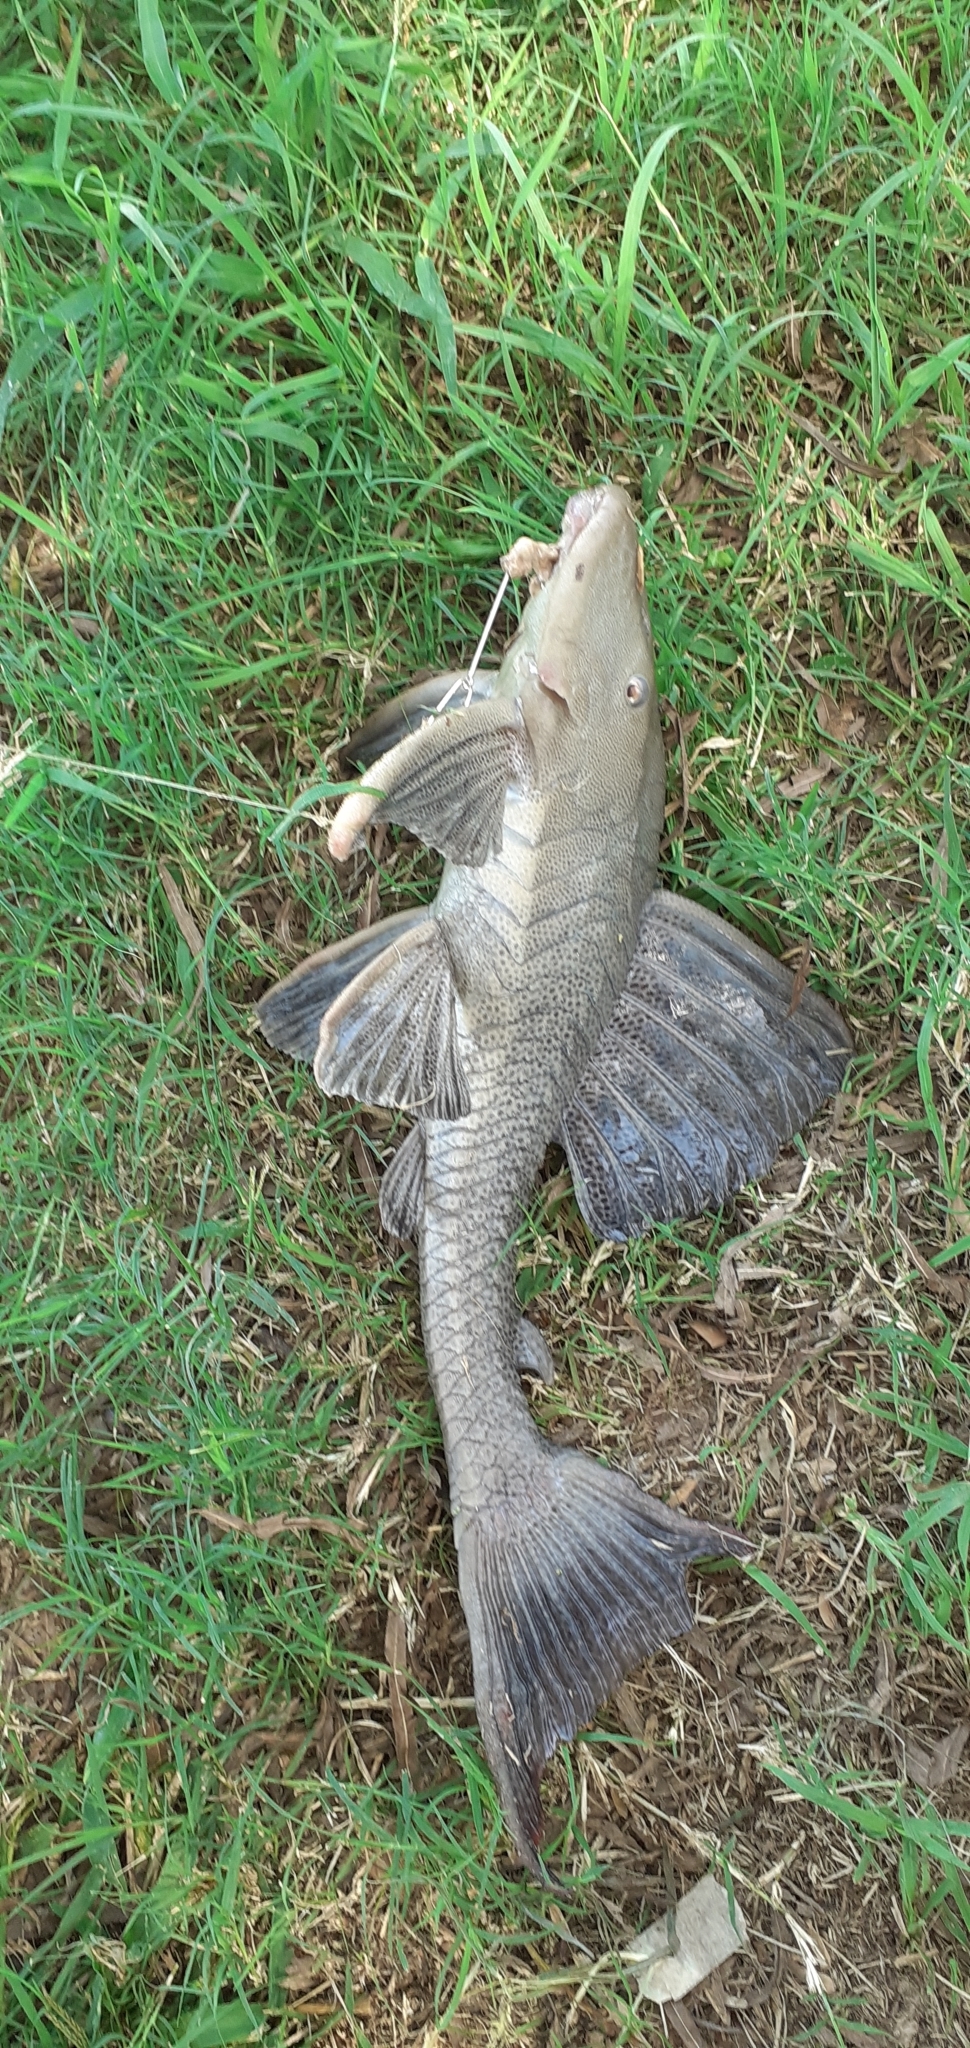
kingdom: Animalia
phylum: Chordata
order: Siluriformes
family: Loricariidae
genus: Hypostomus
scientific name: Hypostomus commersoni
